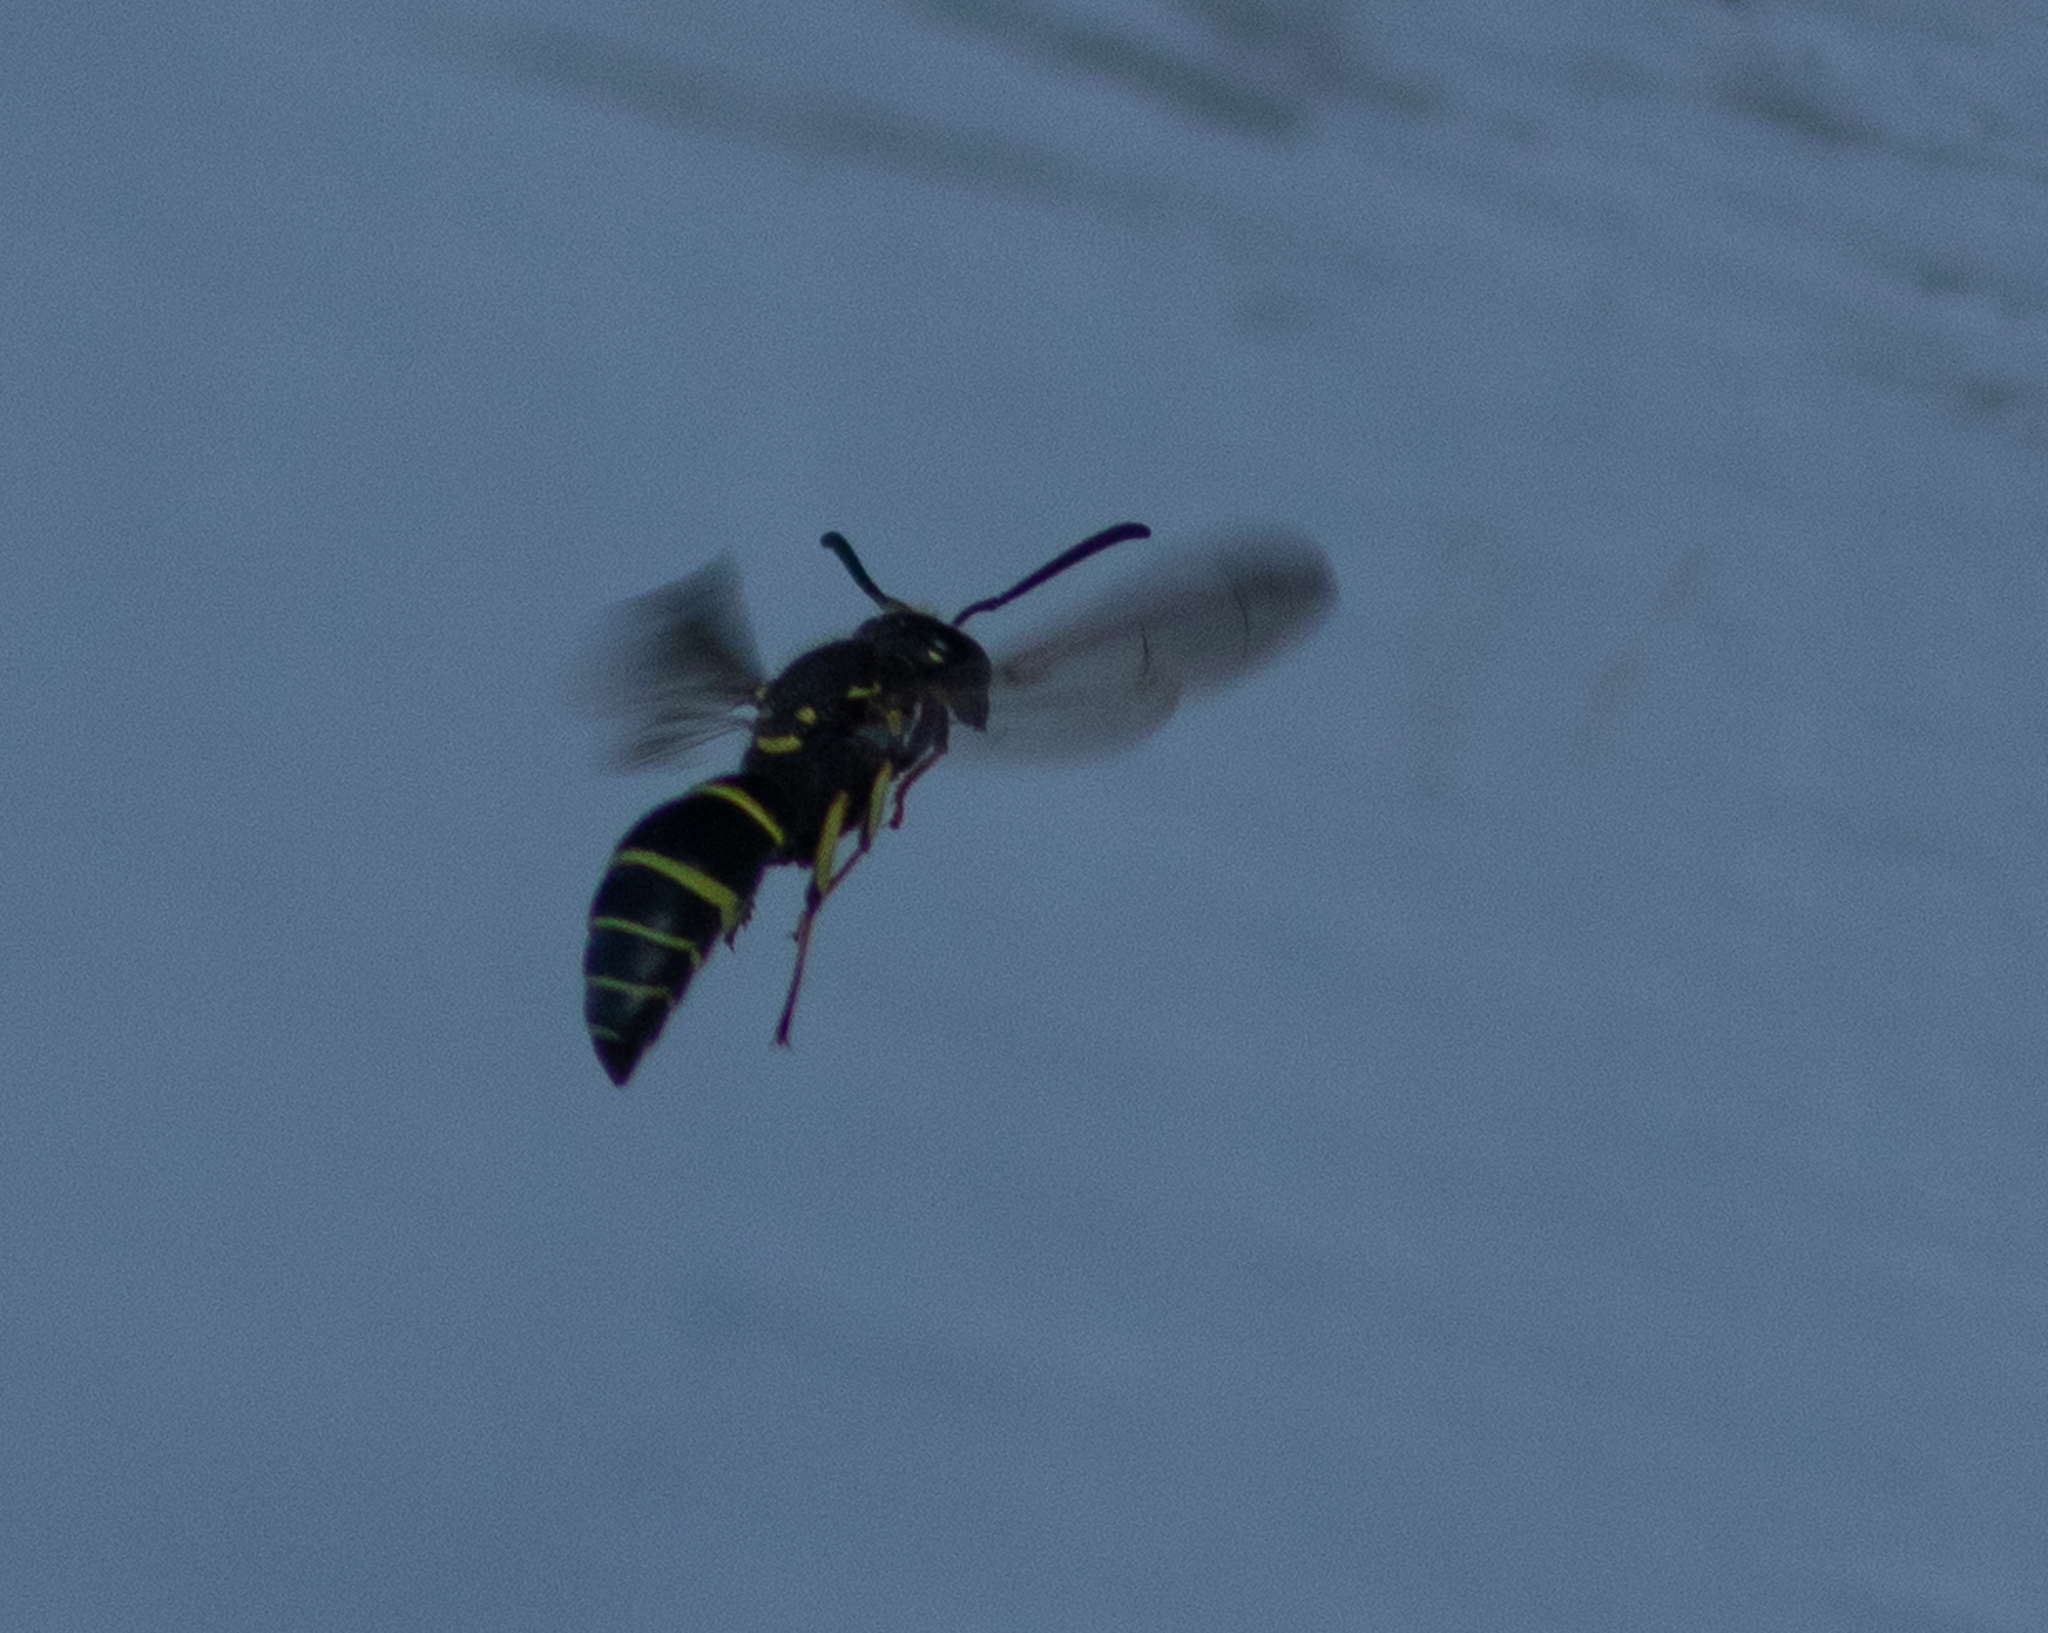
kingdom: Animalia
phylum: Arthropoda
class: Insecta
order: Hymenoptera
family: Vespidae
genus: Ancistrocerus
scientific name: Ancistrocerus adiabatus
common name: Bramble mason wasp
